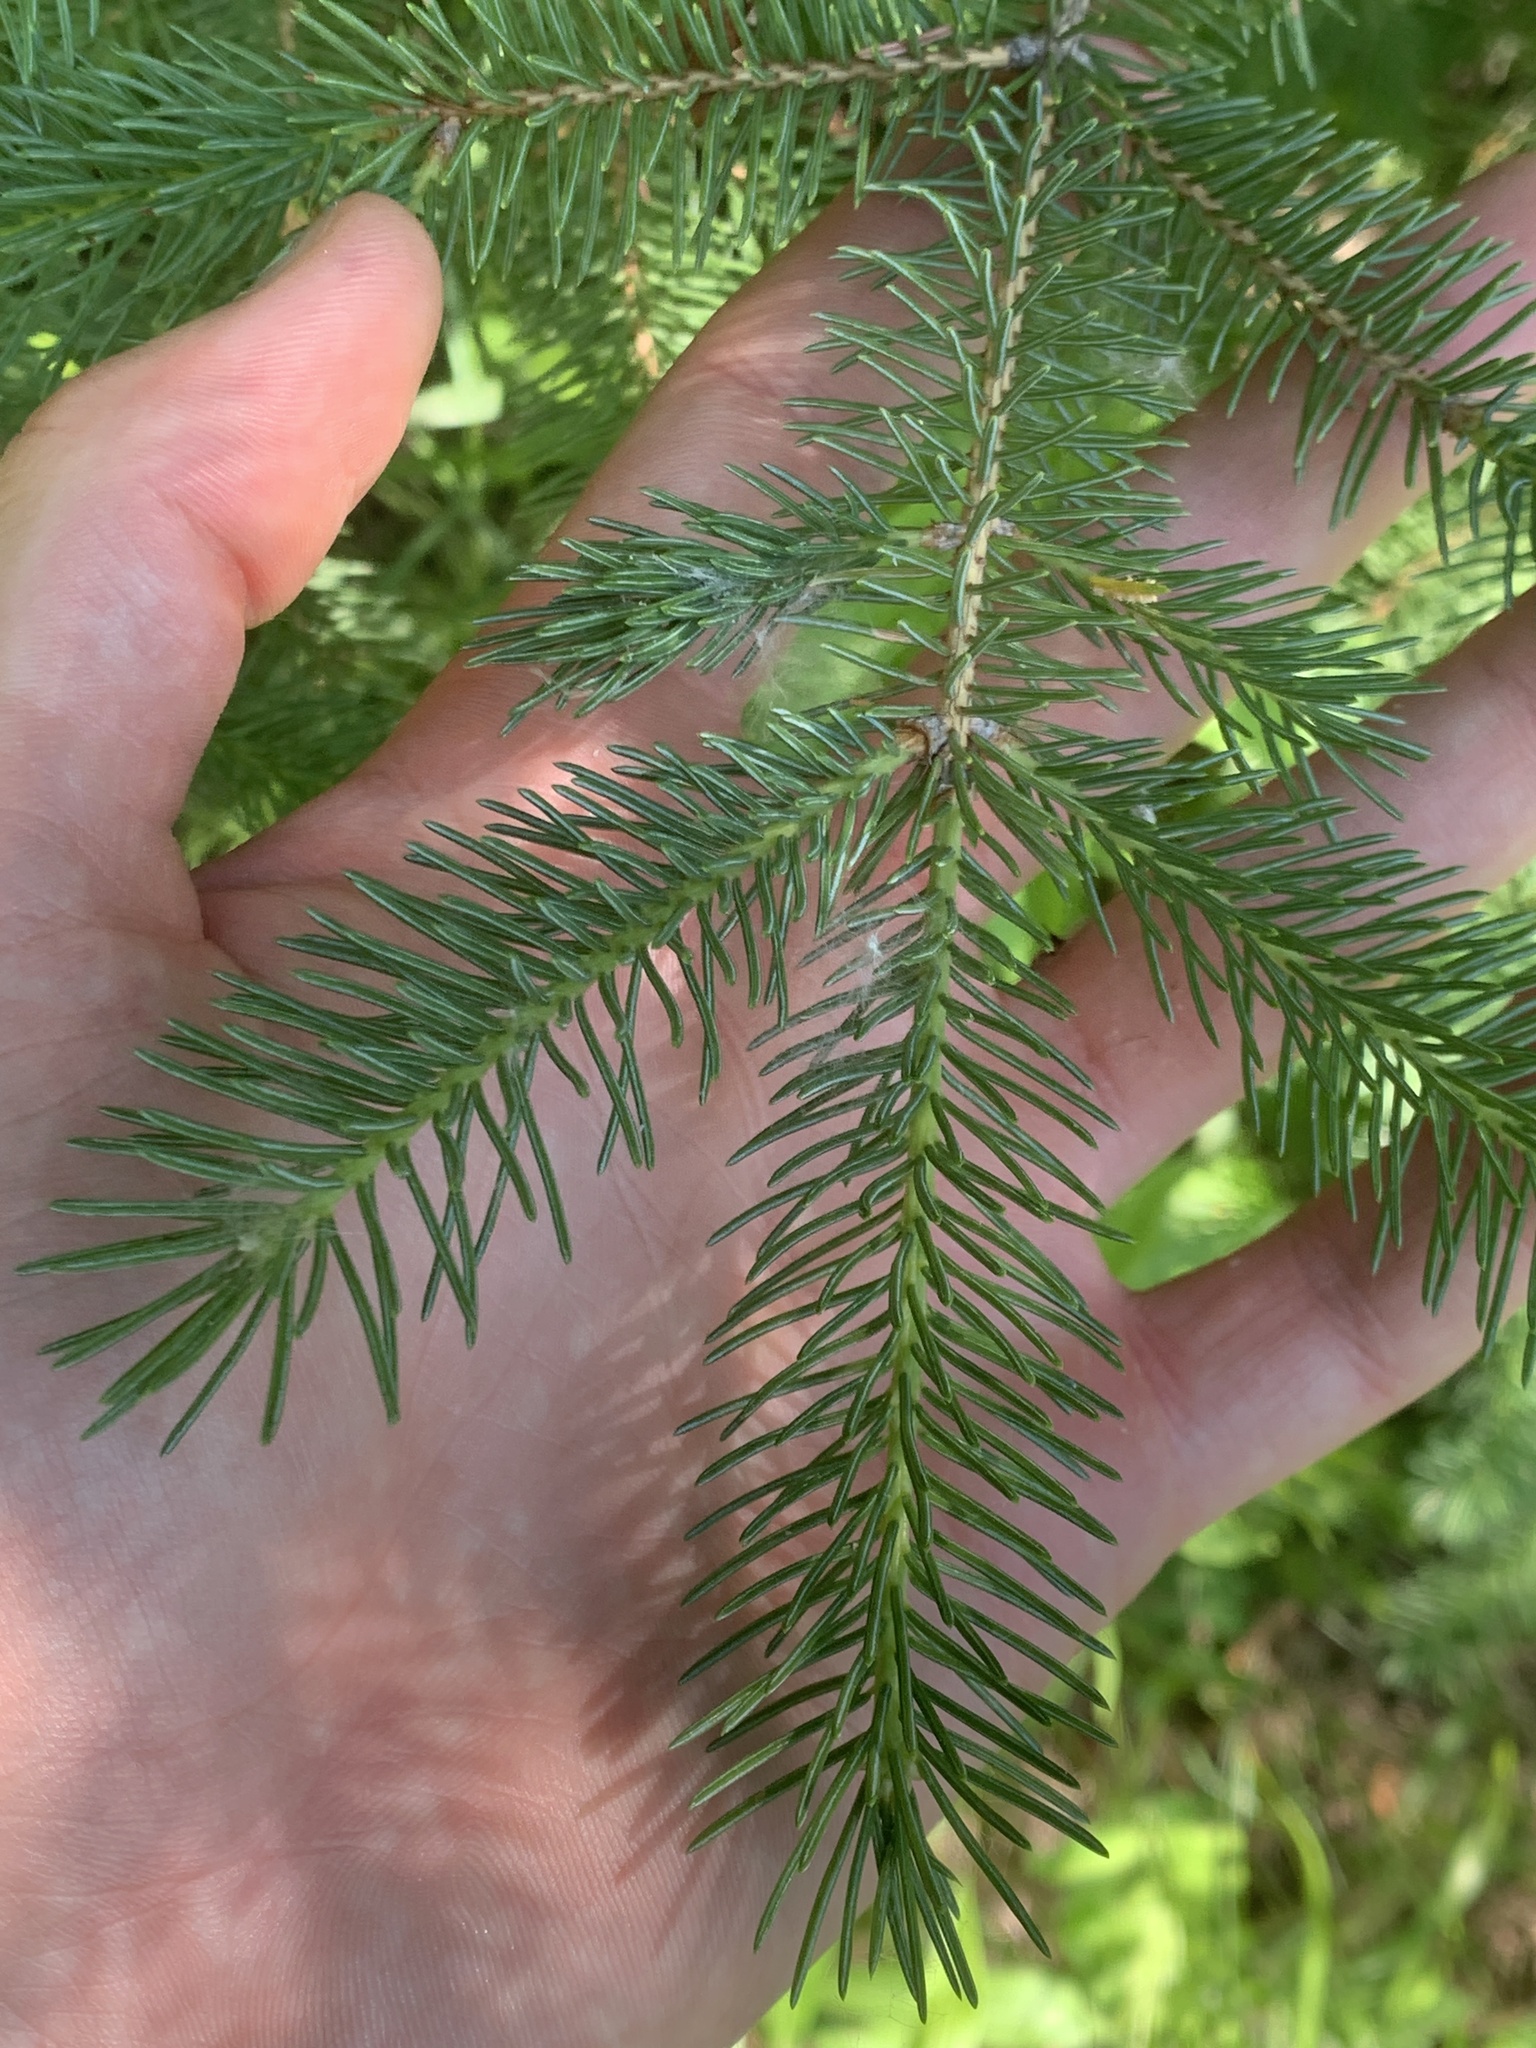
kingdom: Plantae
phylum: Tracheophyta
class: Pinopsida
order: Pinales
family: Pinaceae
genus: Picea
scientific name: Picea glauca
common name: White spruce
